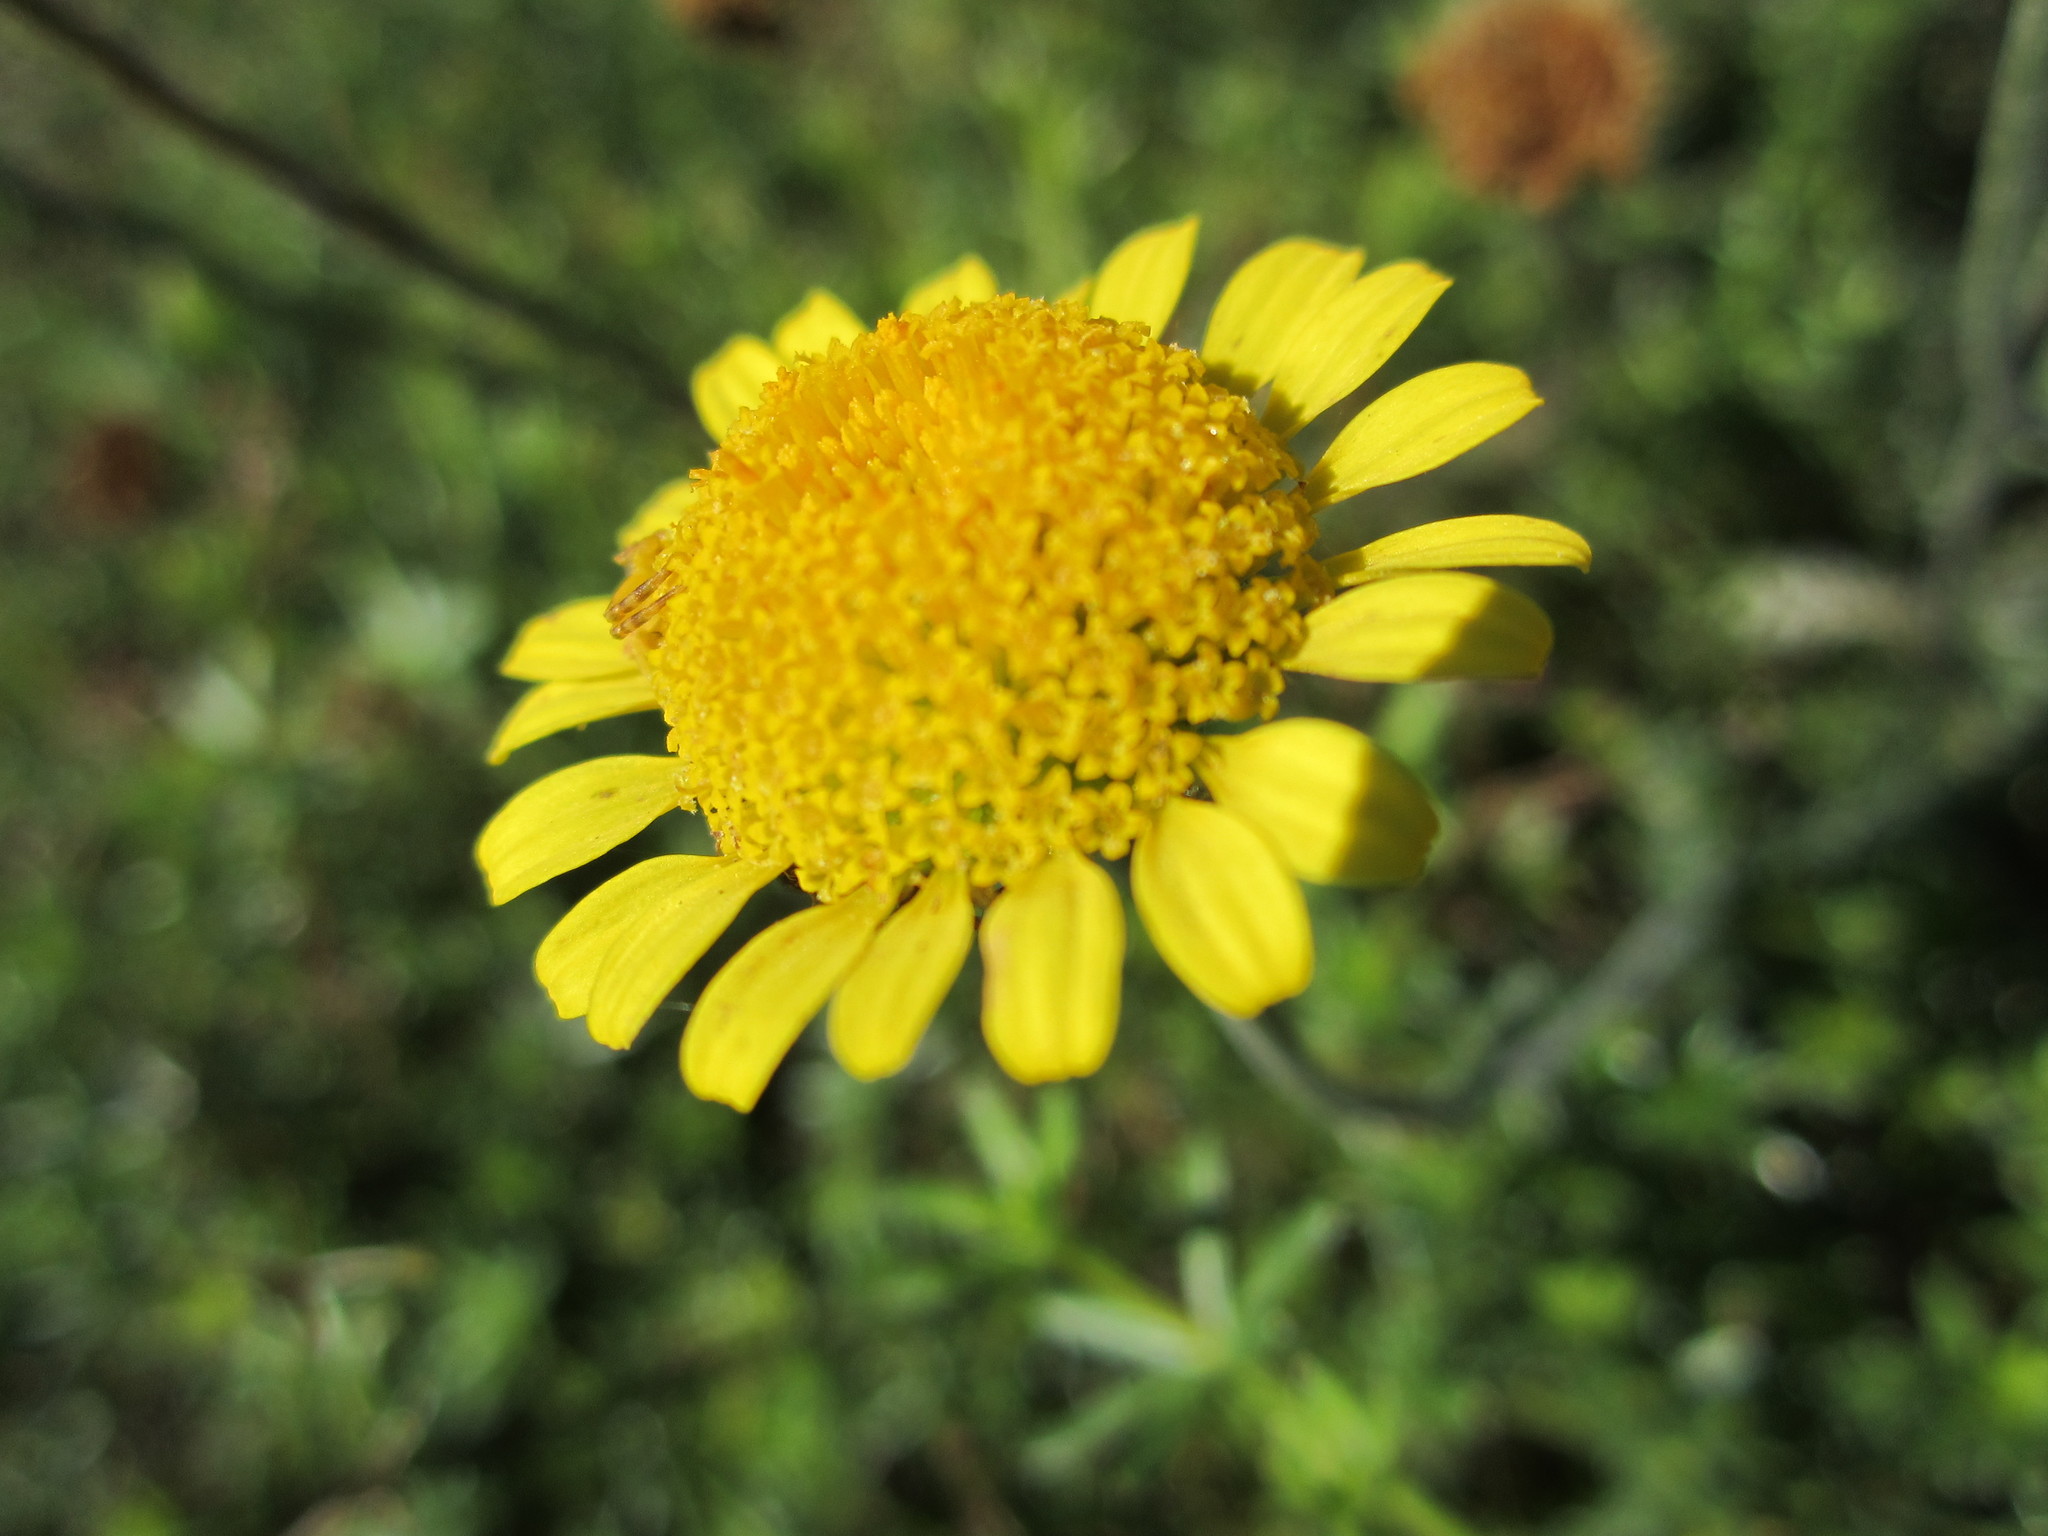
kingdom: Plantae
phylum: Tracheophyta
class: Magnoliopsida
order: Asterales
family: Asteraceae
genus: Cota
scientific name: Cota tinctoria
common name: Golden chamomile
